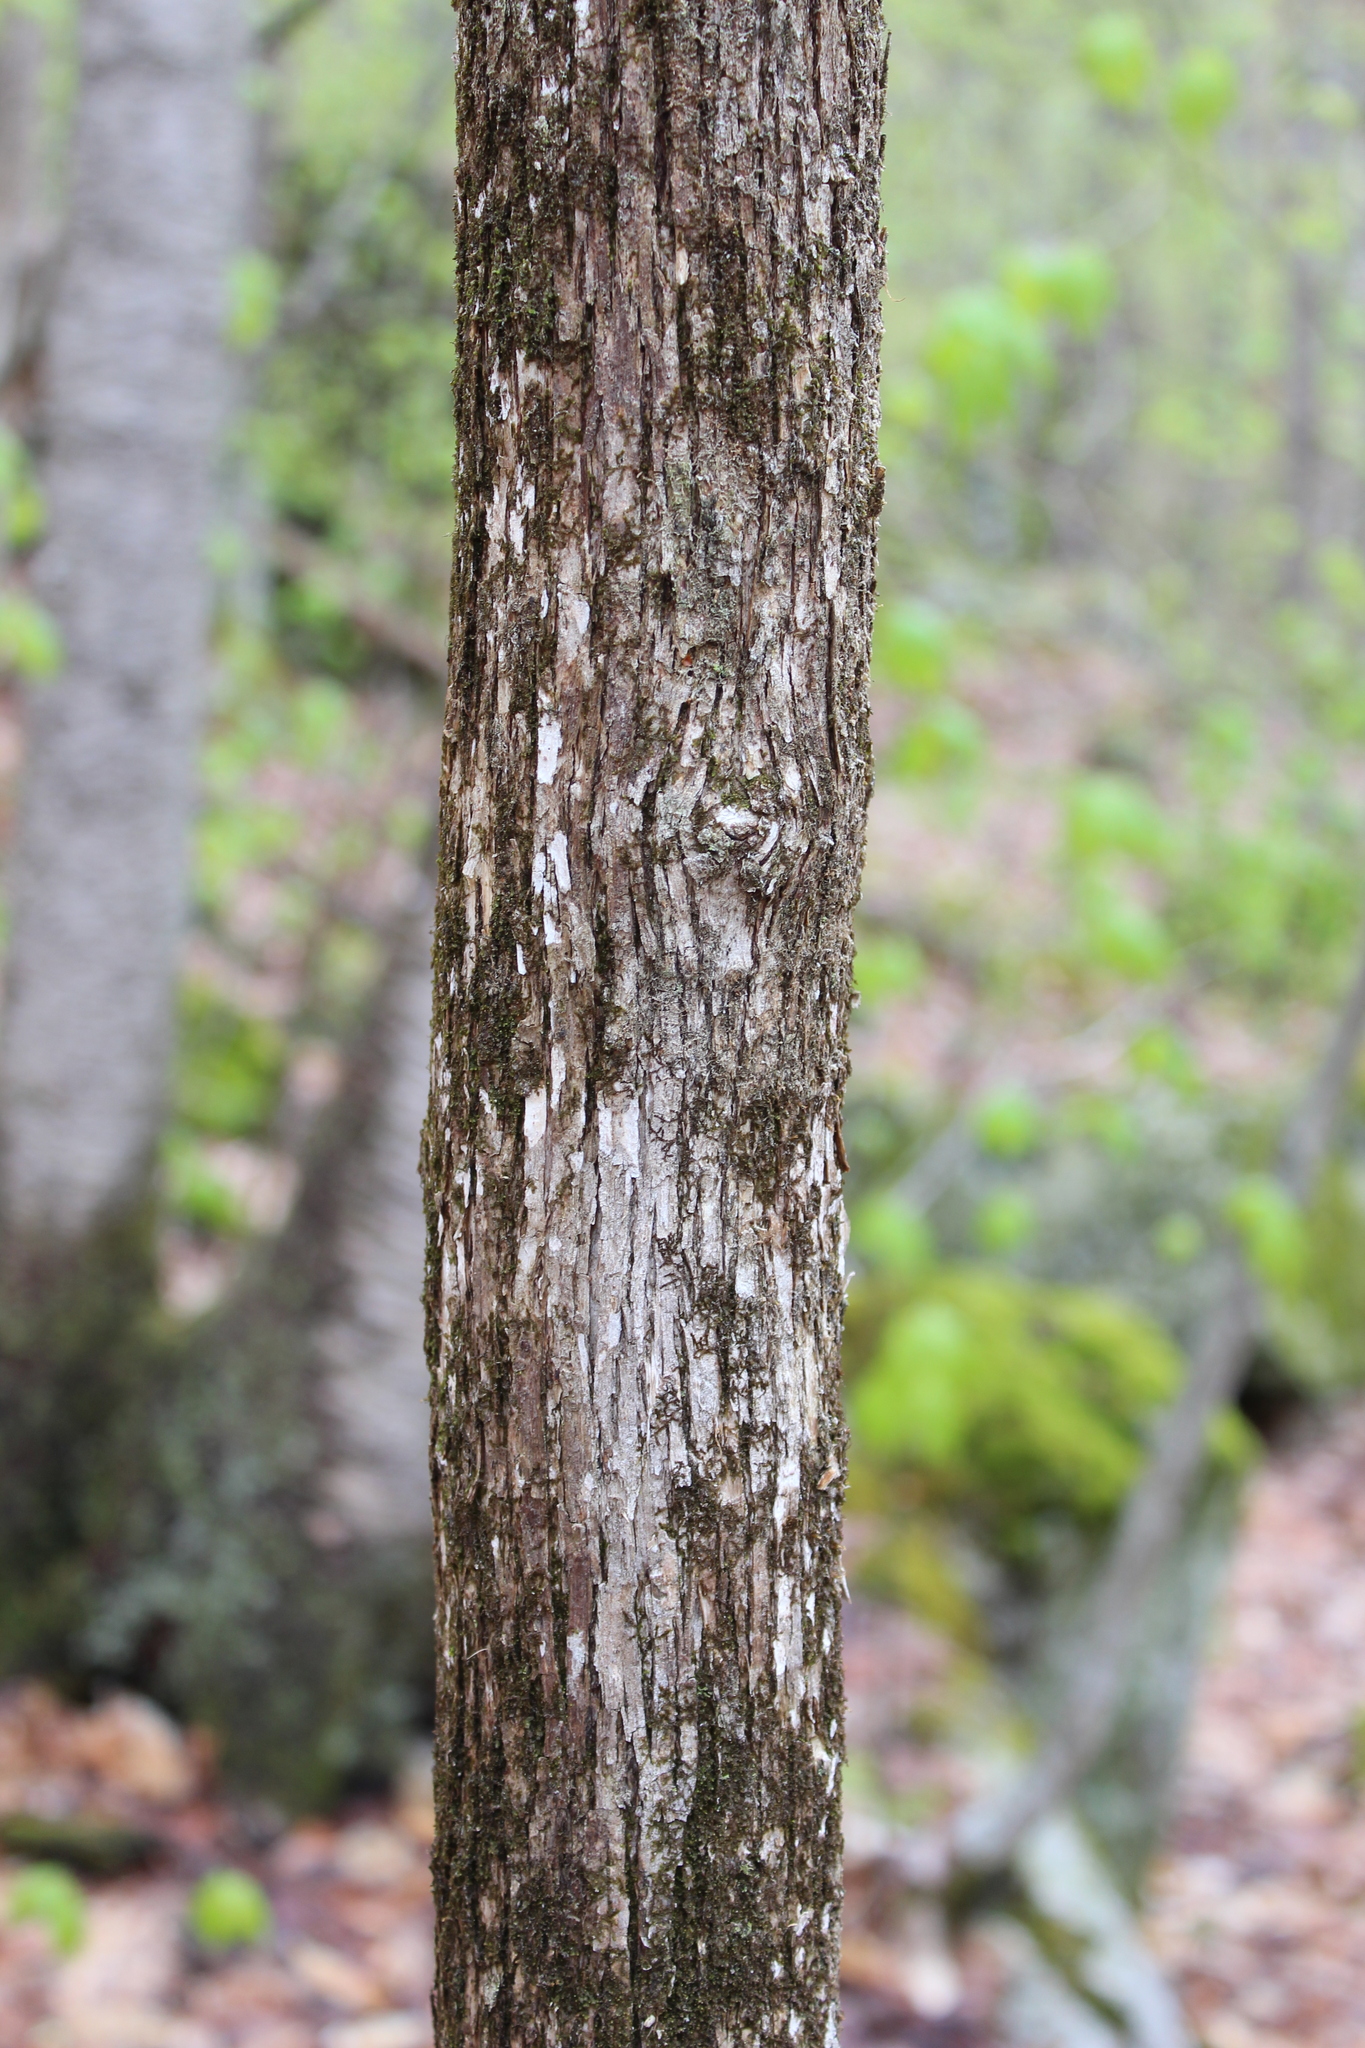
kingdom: Plantae
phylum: Tracheophyta
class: Magnoliopsida
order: Fagales
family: Betulaceae
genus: Ostrya
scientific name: Ostrya virginiana
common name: Ironwood
